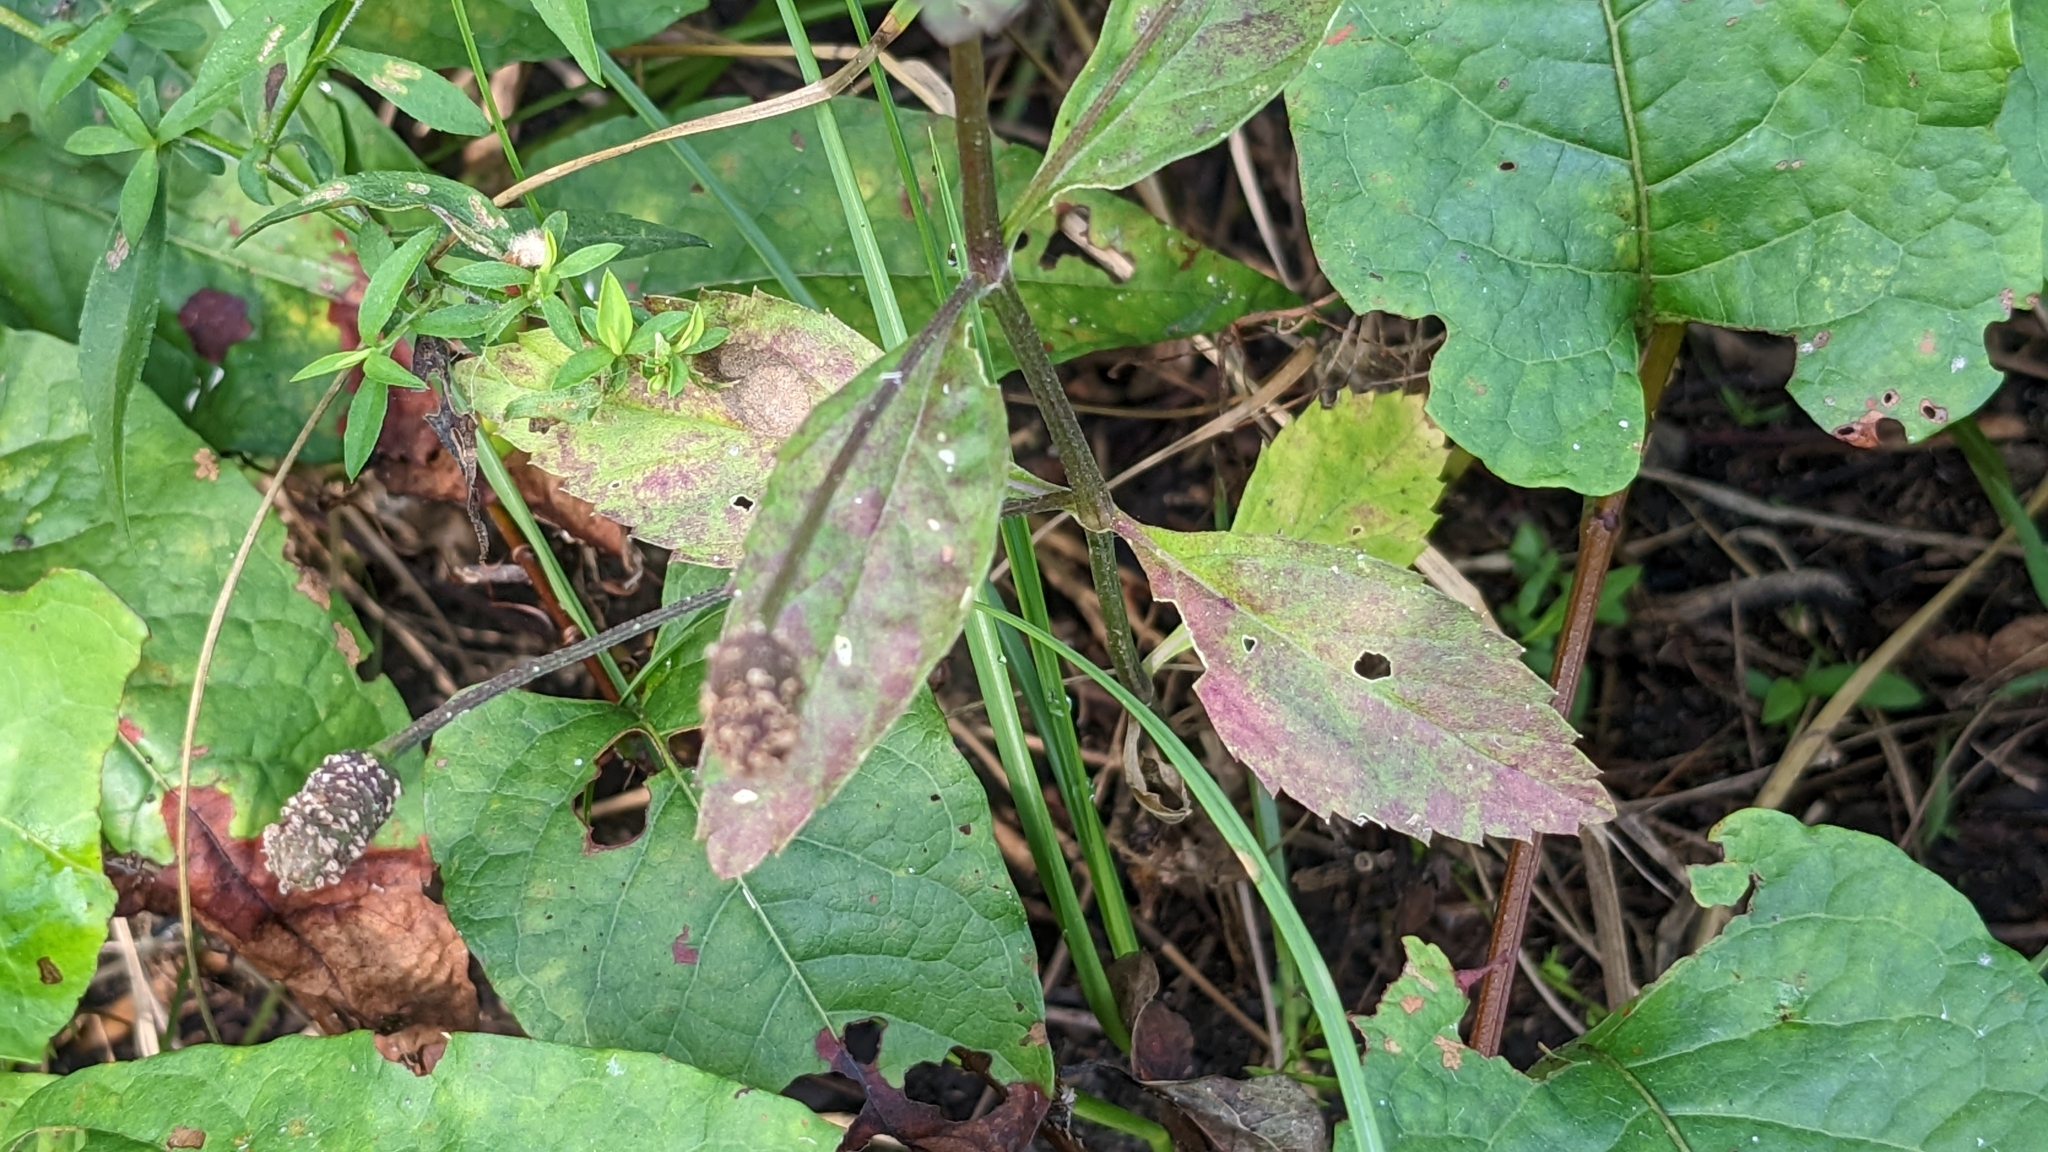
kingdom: Plantae
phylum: Tracheophyta
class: Magnoliopsida
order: Lamiales
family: Verbenaceae
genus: Phyla
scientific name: Phyla lanceolata
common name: Northern fogfruit
